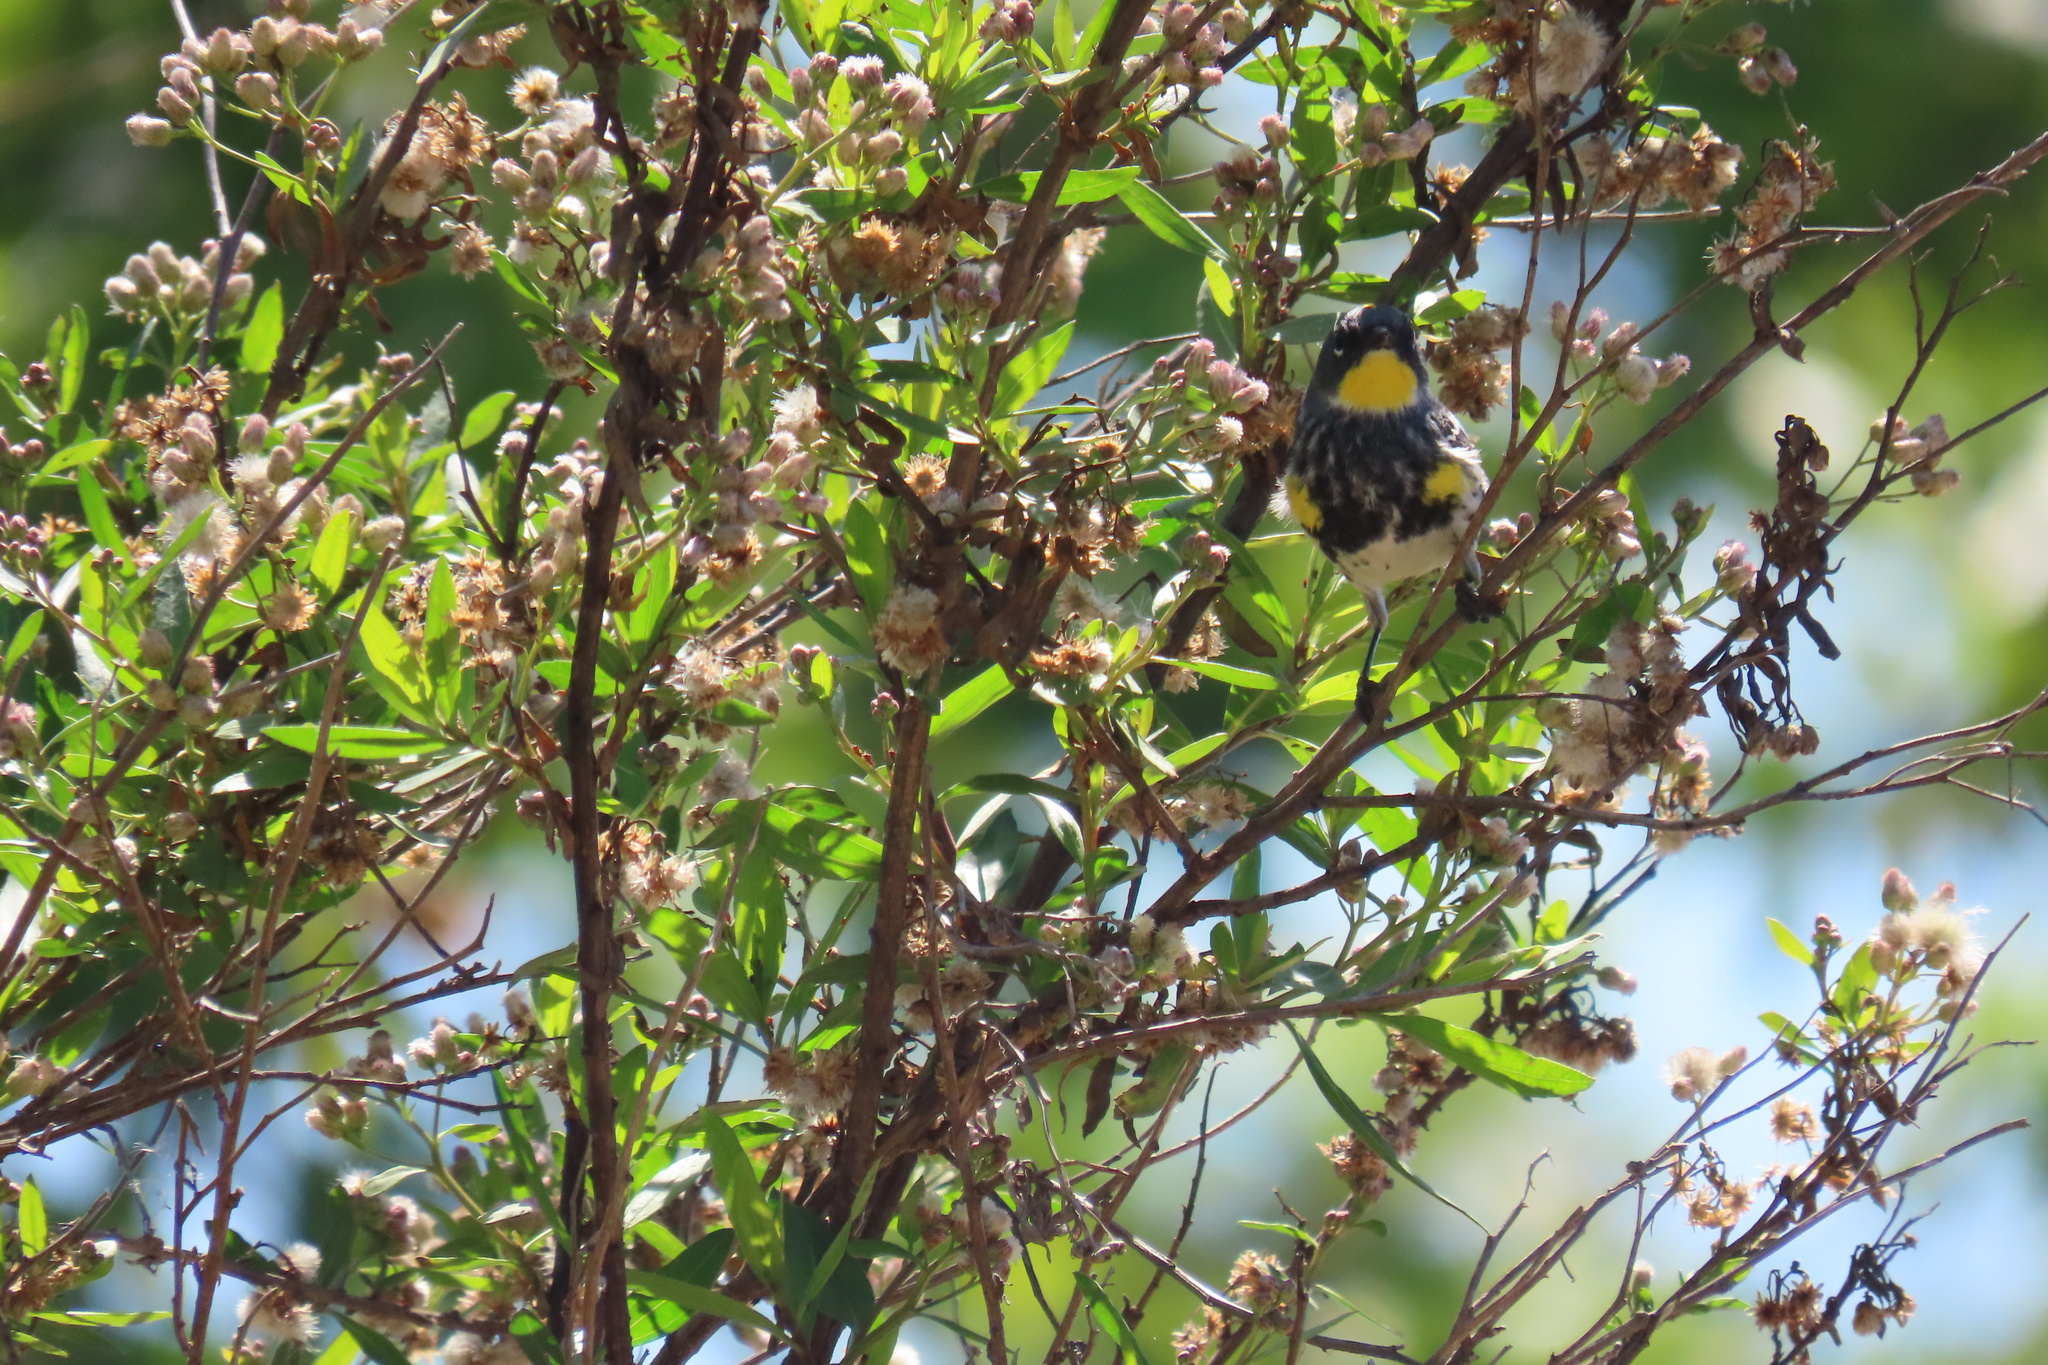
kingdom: Animalia
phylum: Chordata
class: Aves
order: Passeriformes
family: Parulidae
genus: Setophaga
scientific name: Setophaga coronata
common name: Myrtle warbler
